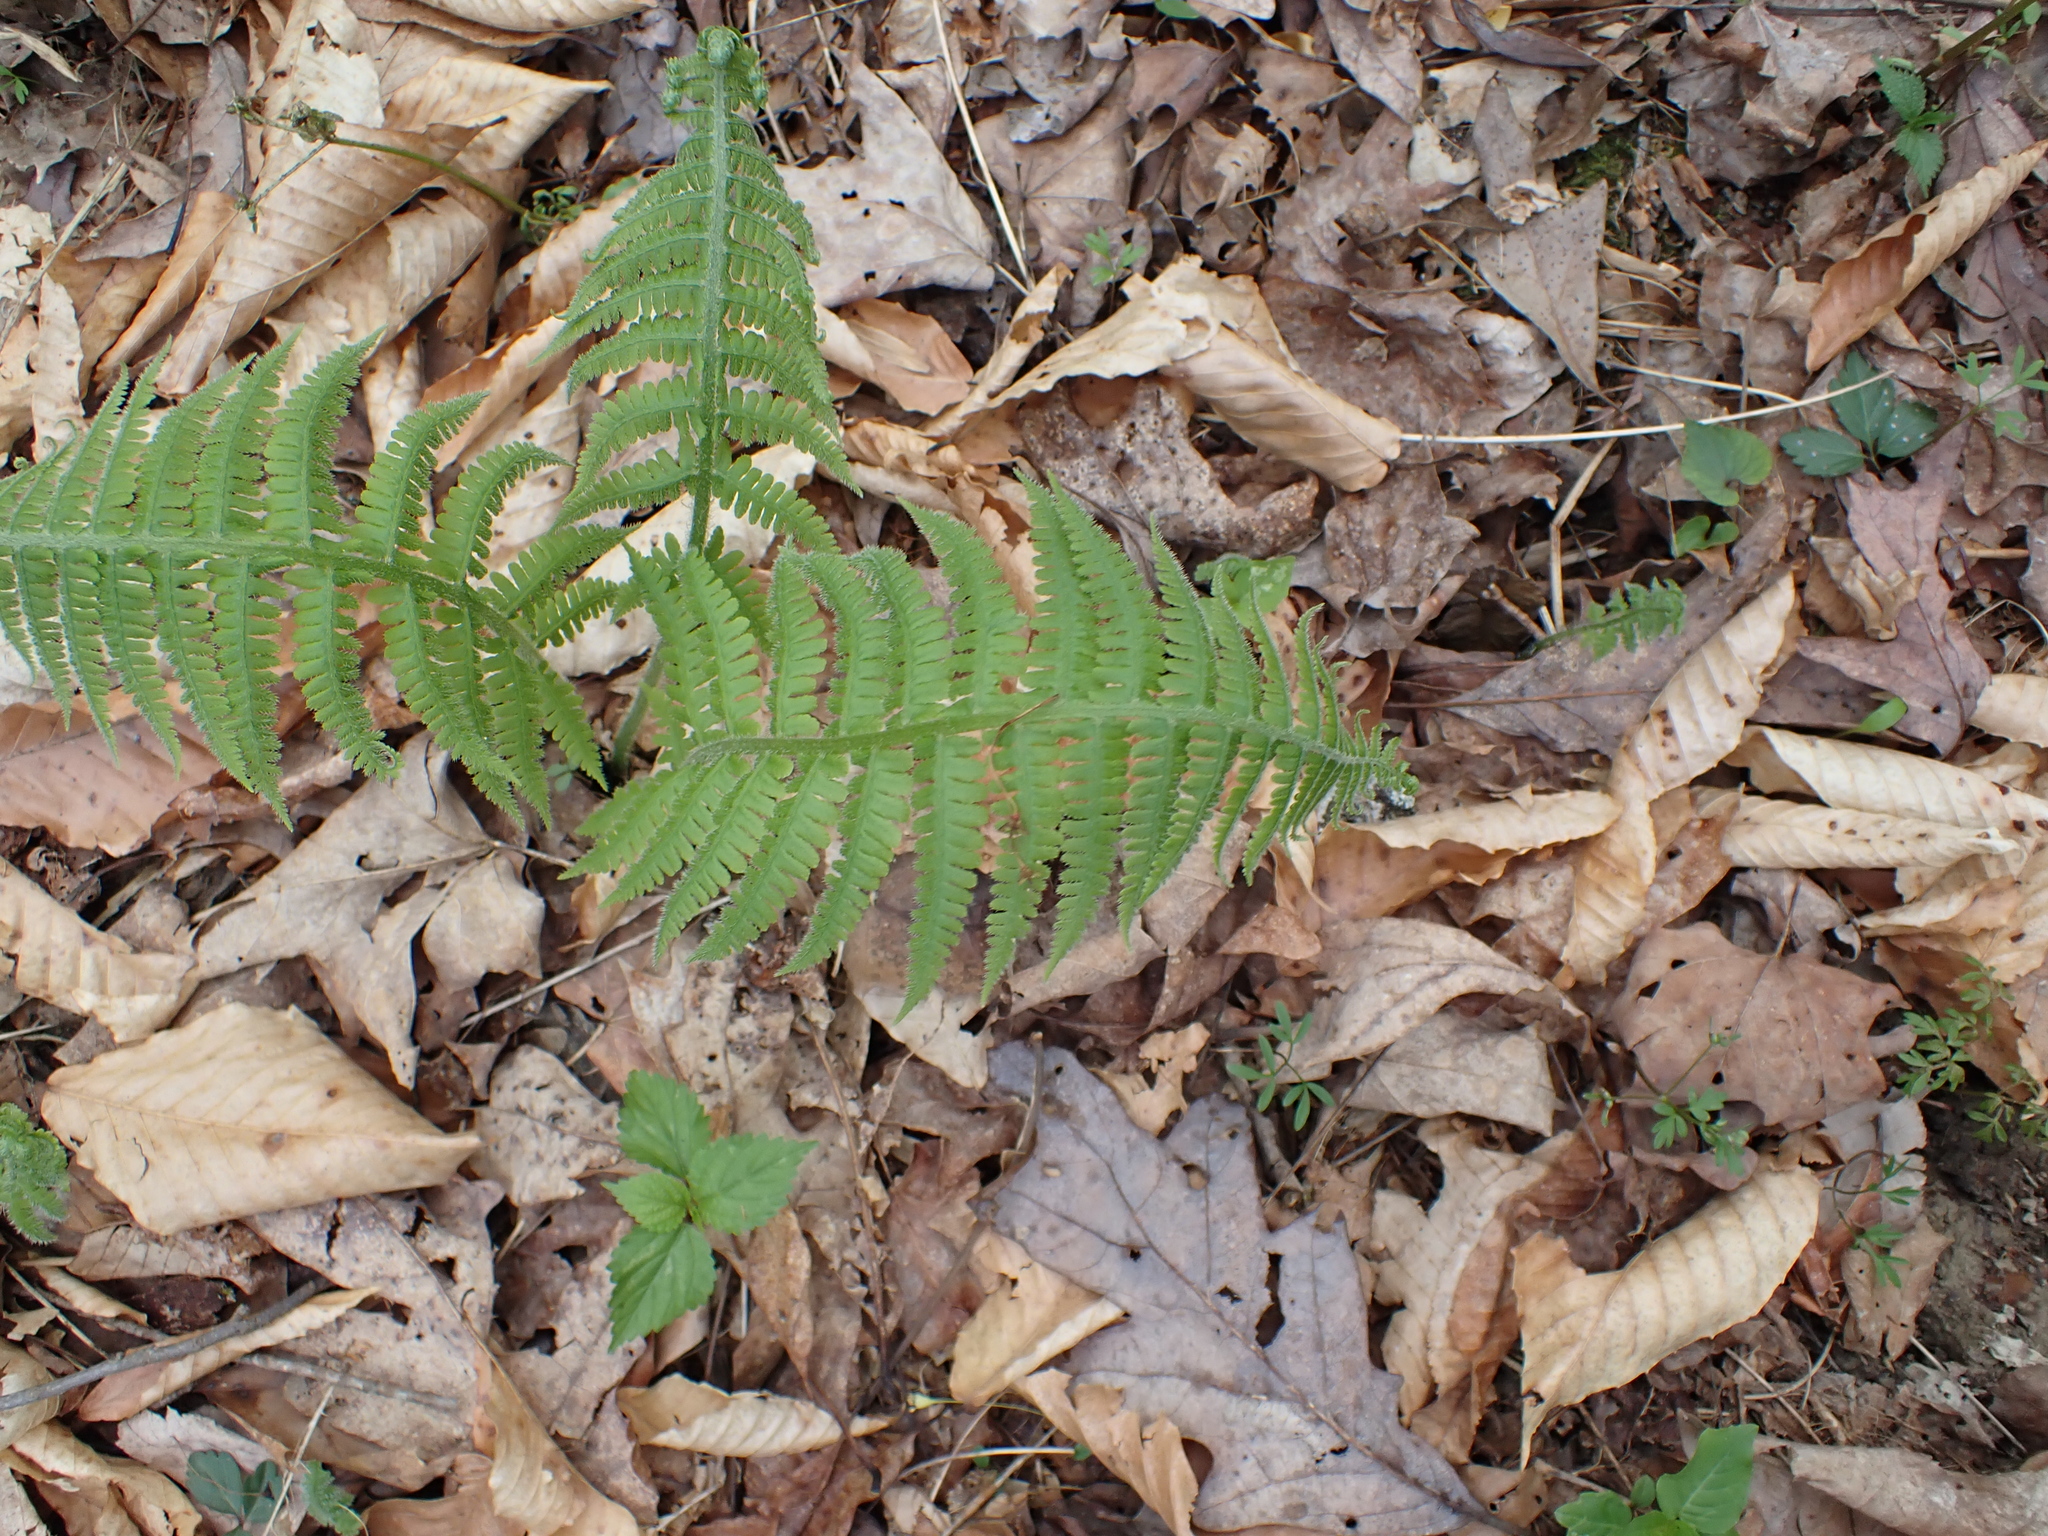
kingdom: Plantae
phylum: Tracheophyta
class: Polypodiopsida
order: Polypodiales
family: Athyriaceae
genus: Deparia
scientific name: Deparia acrostichoides
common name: Silver false spleenwort
